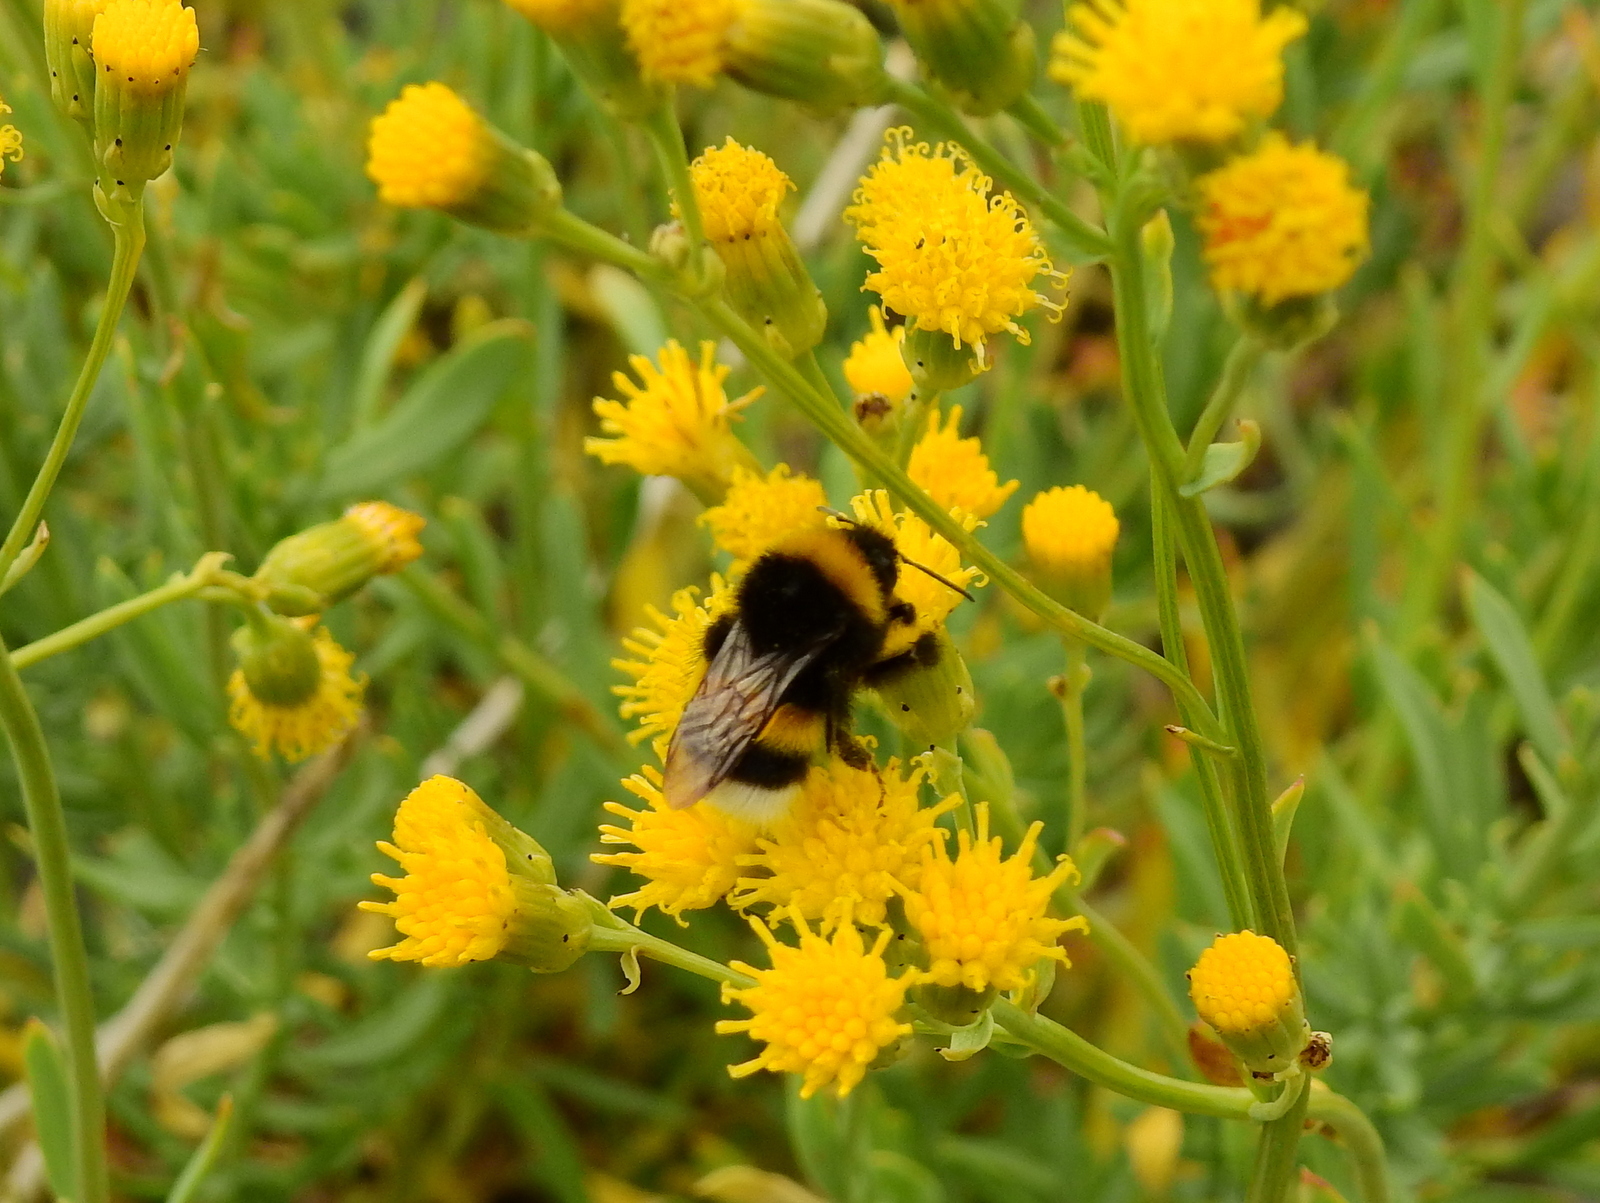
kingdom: Animalia
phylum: Arthropoda
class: Insecta
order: Hymenoptera
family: Apidae
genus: Bombus
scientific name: Bombus terrestris
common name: Buff-tailed bumblebee
